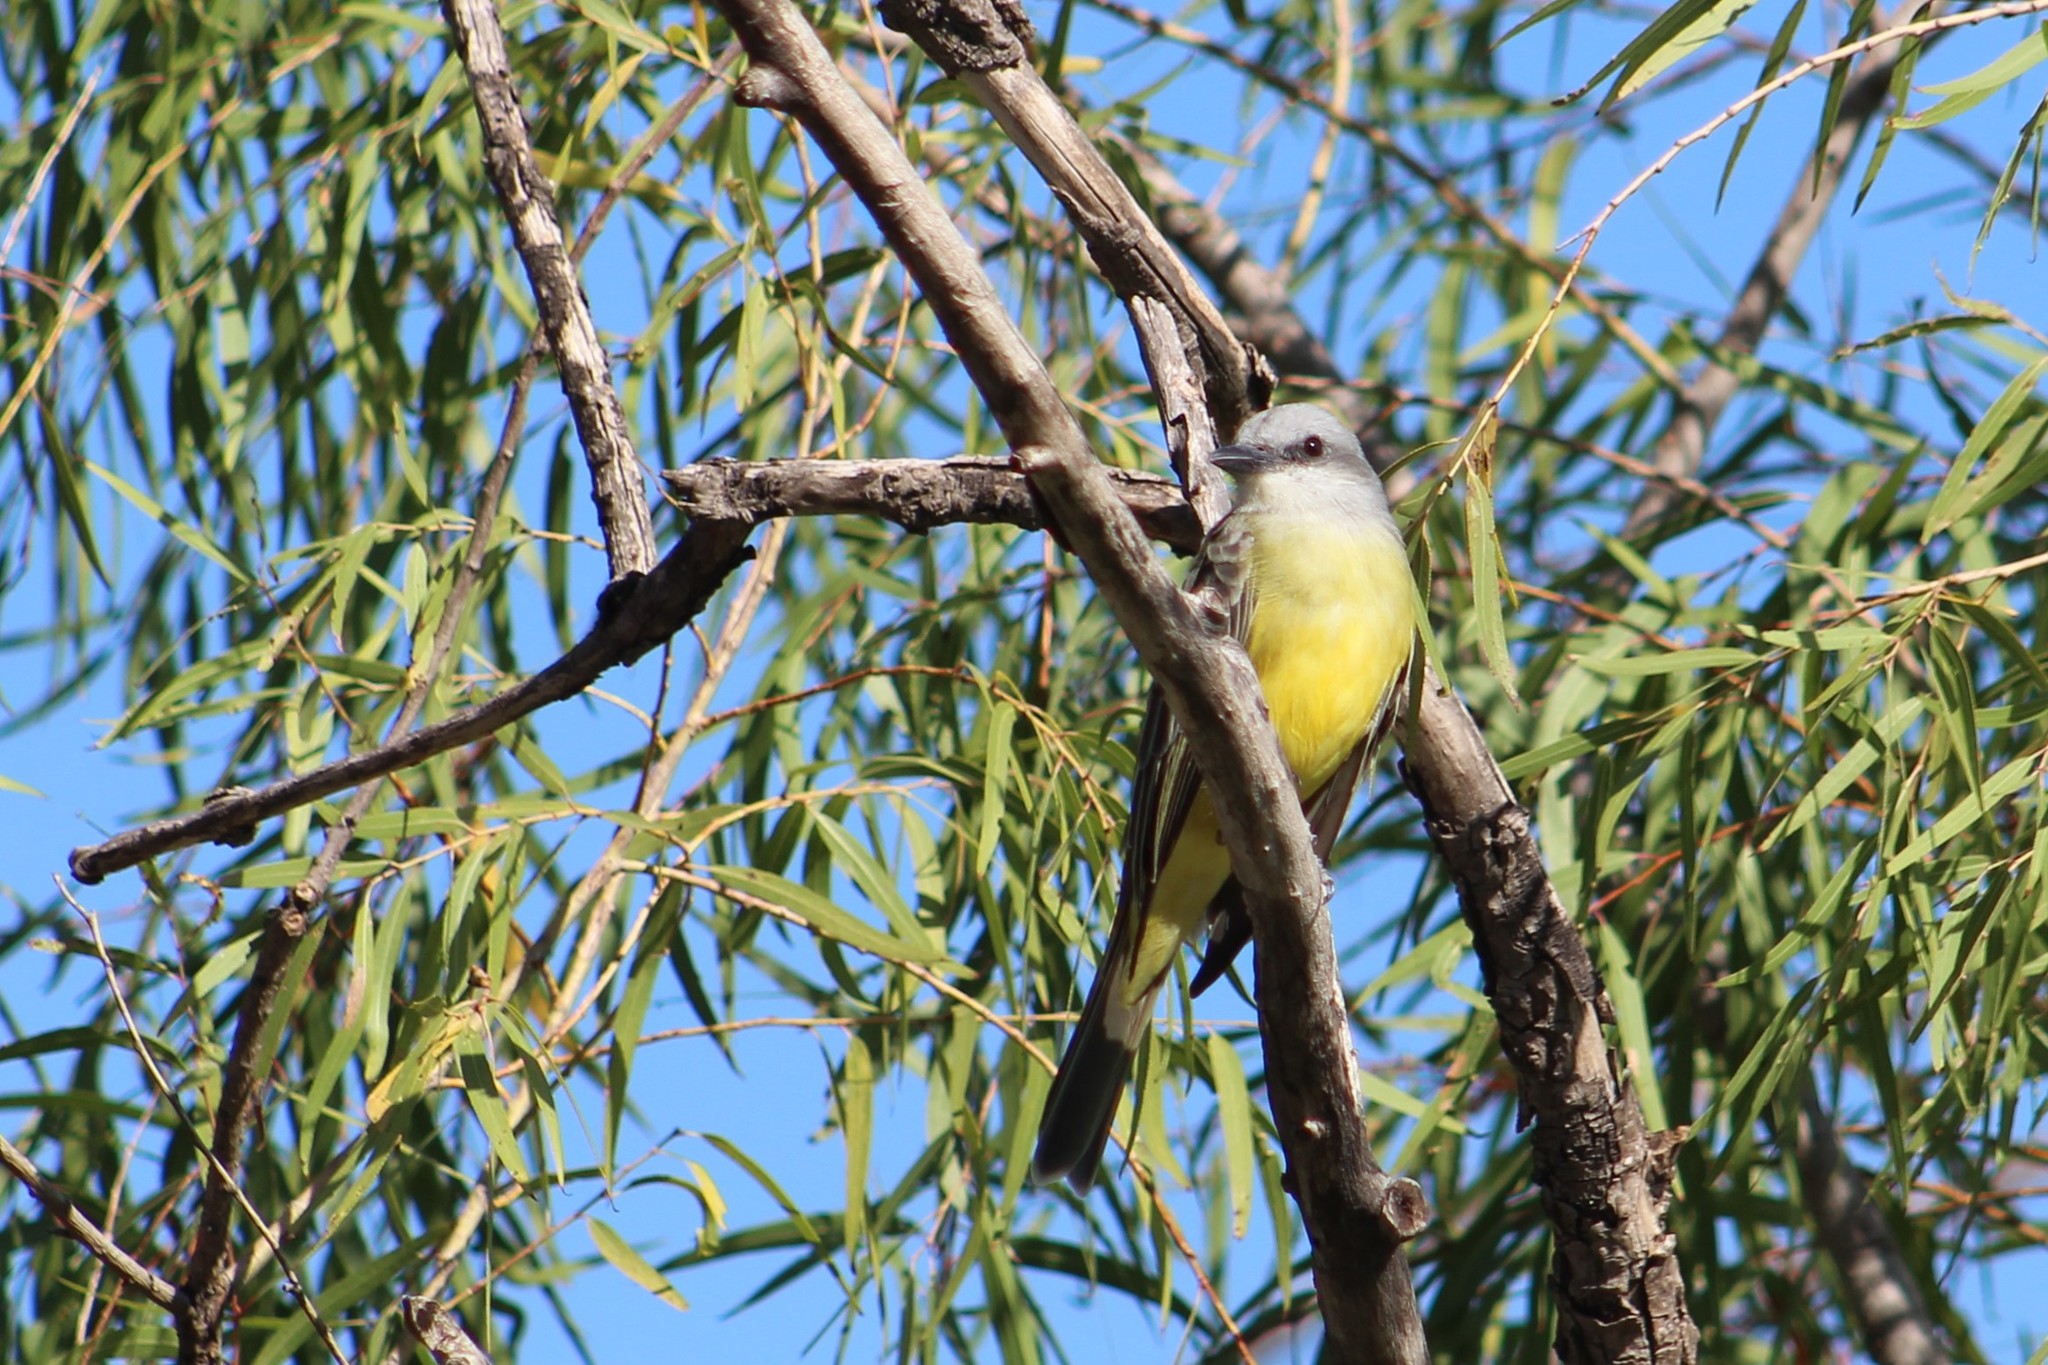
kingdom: Animalia
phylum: Chordata
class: Aves
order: Passeriformes
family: Tyrannidae
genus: Tyrannus
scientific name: Tyrannus melancholicus
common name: Tropical kingbird
